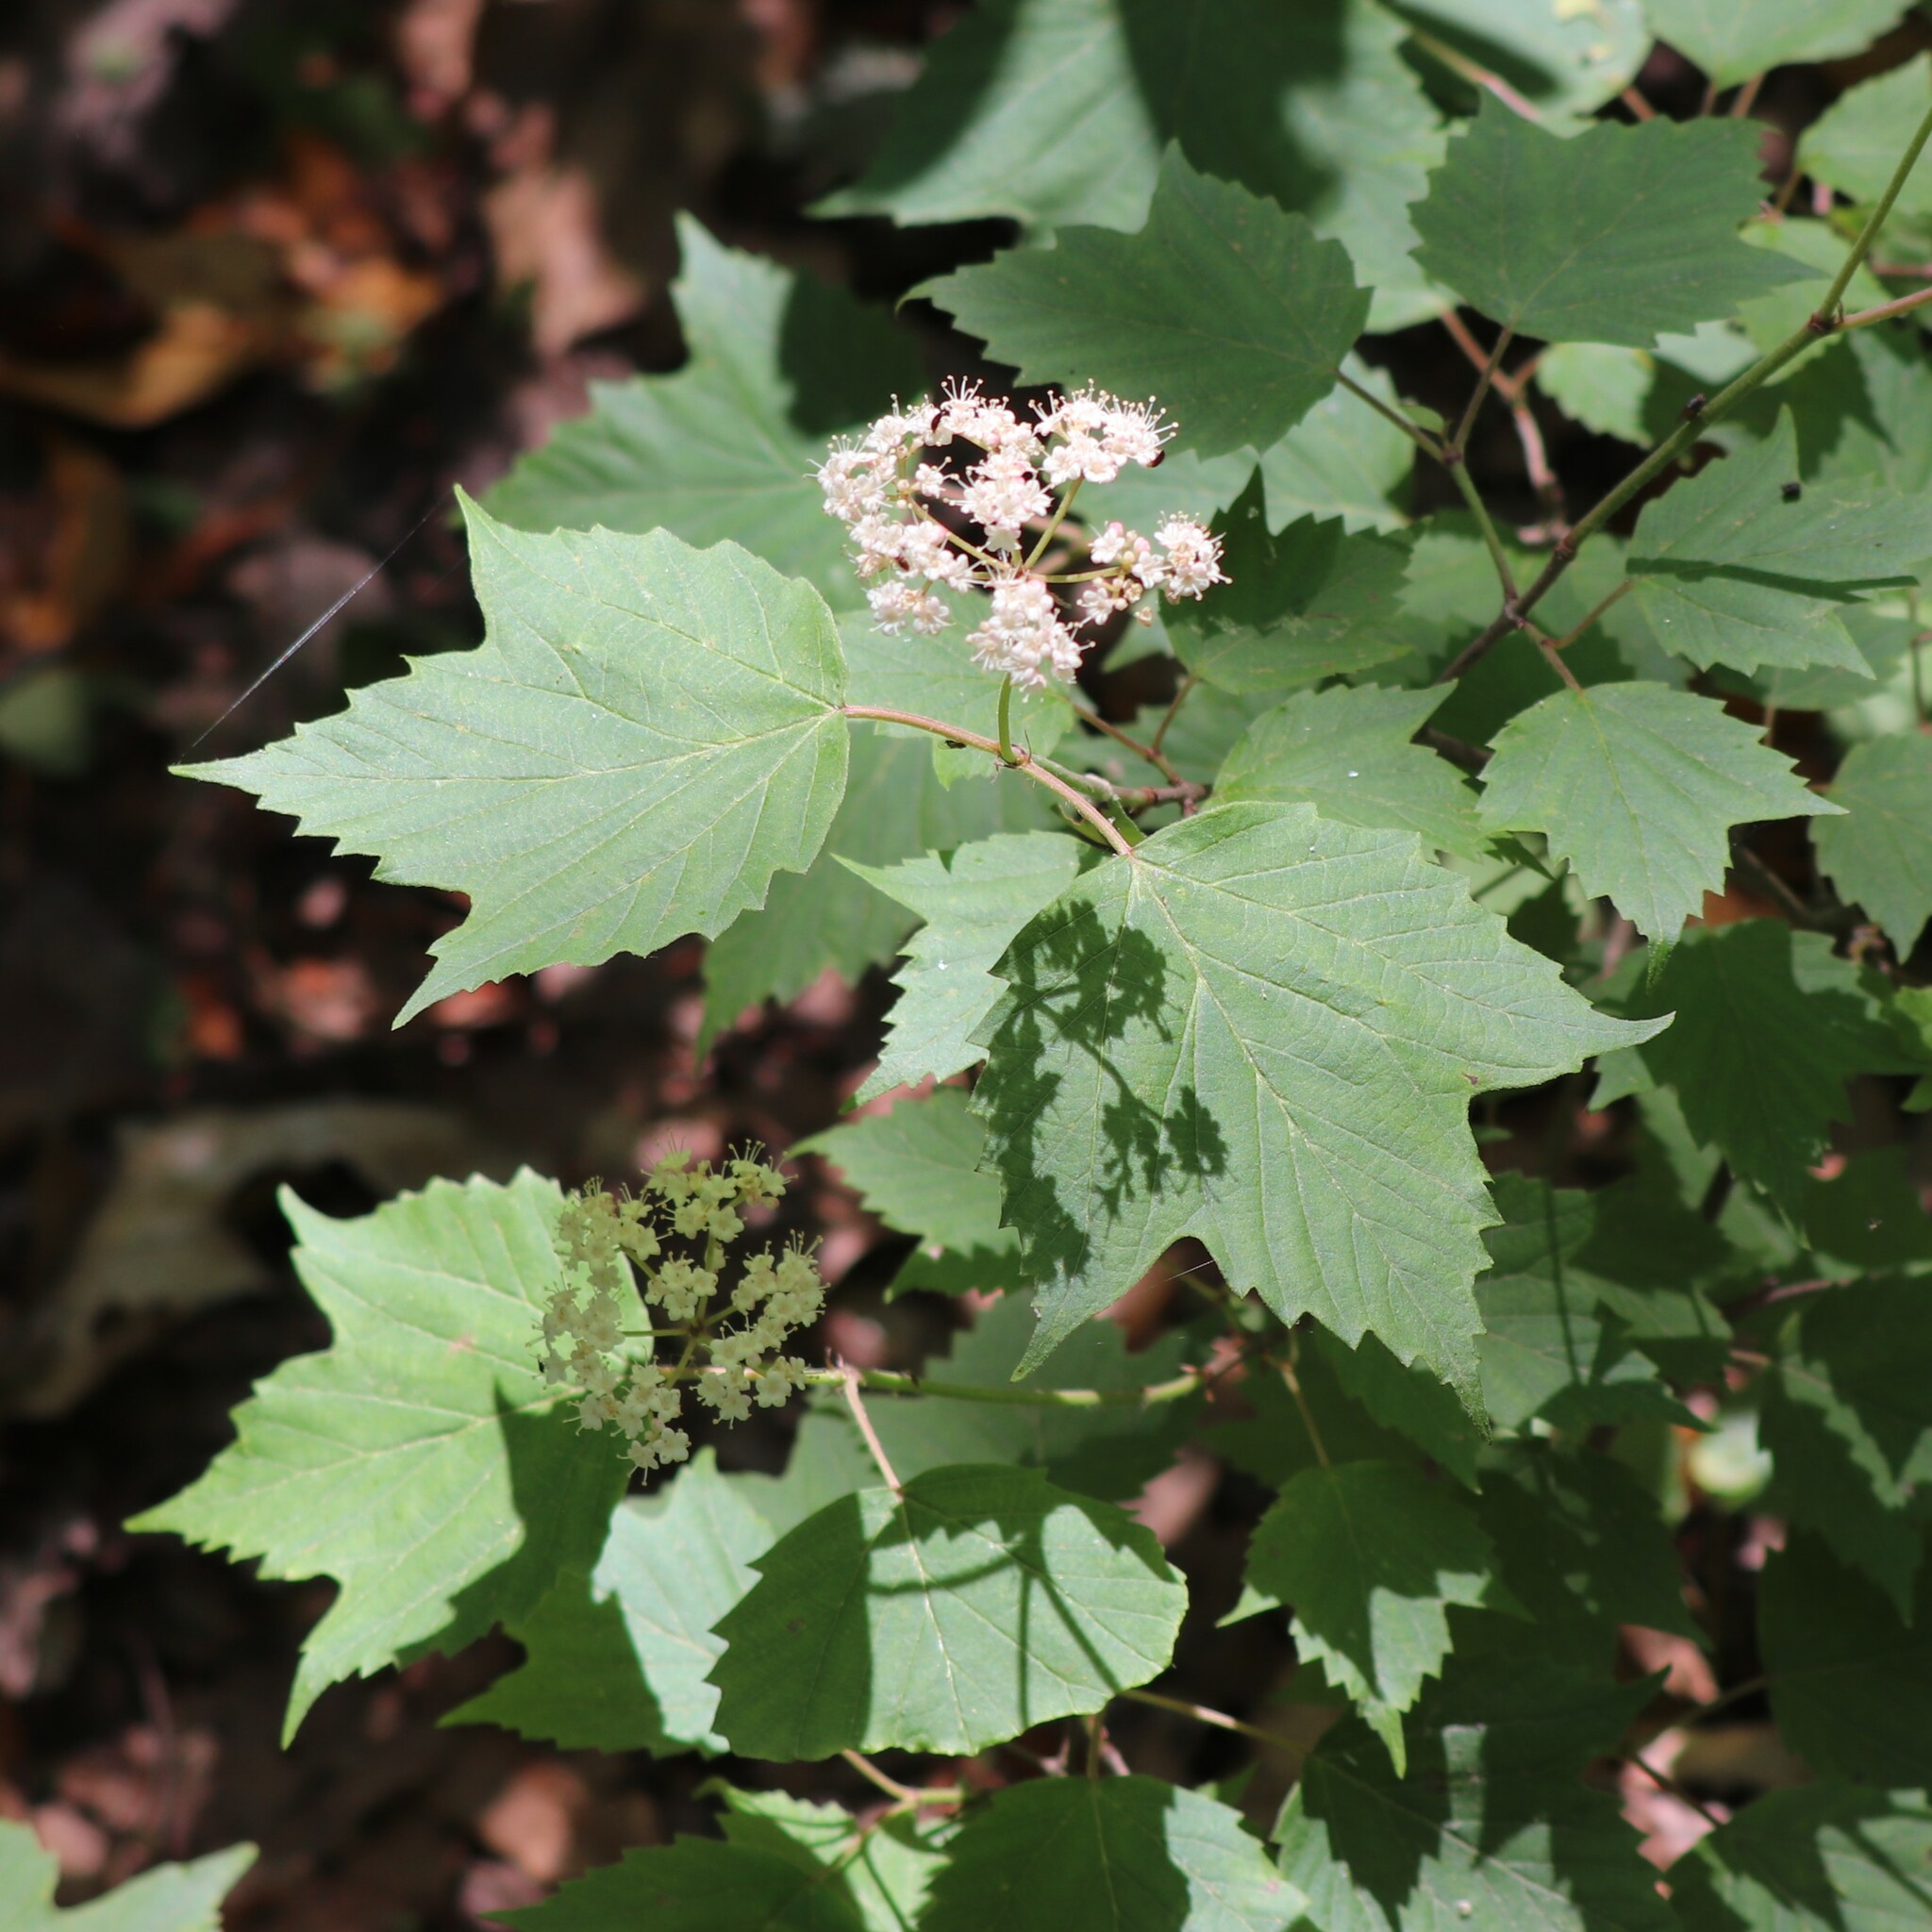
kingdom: Plantae
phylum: Tracheophyta
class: Magnoliopsida
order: Dipsacales
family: Viburnaceae
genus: Viburnum
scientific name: Viburnum acerifolium
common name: Dockmackie
